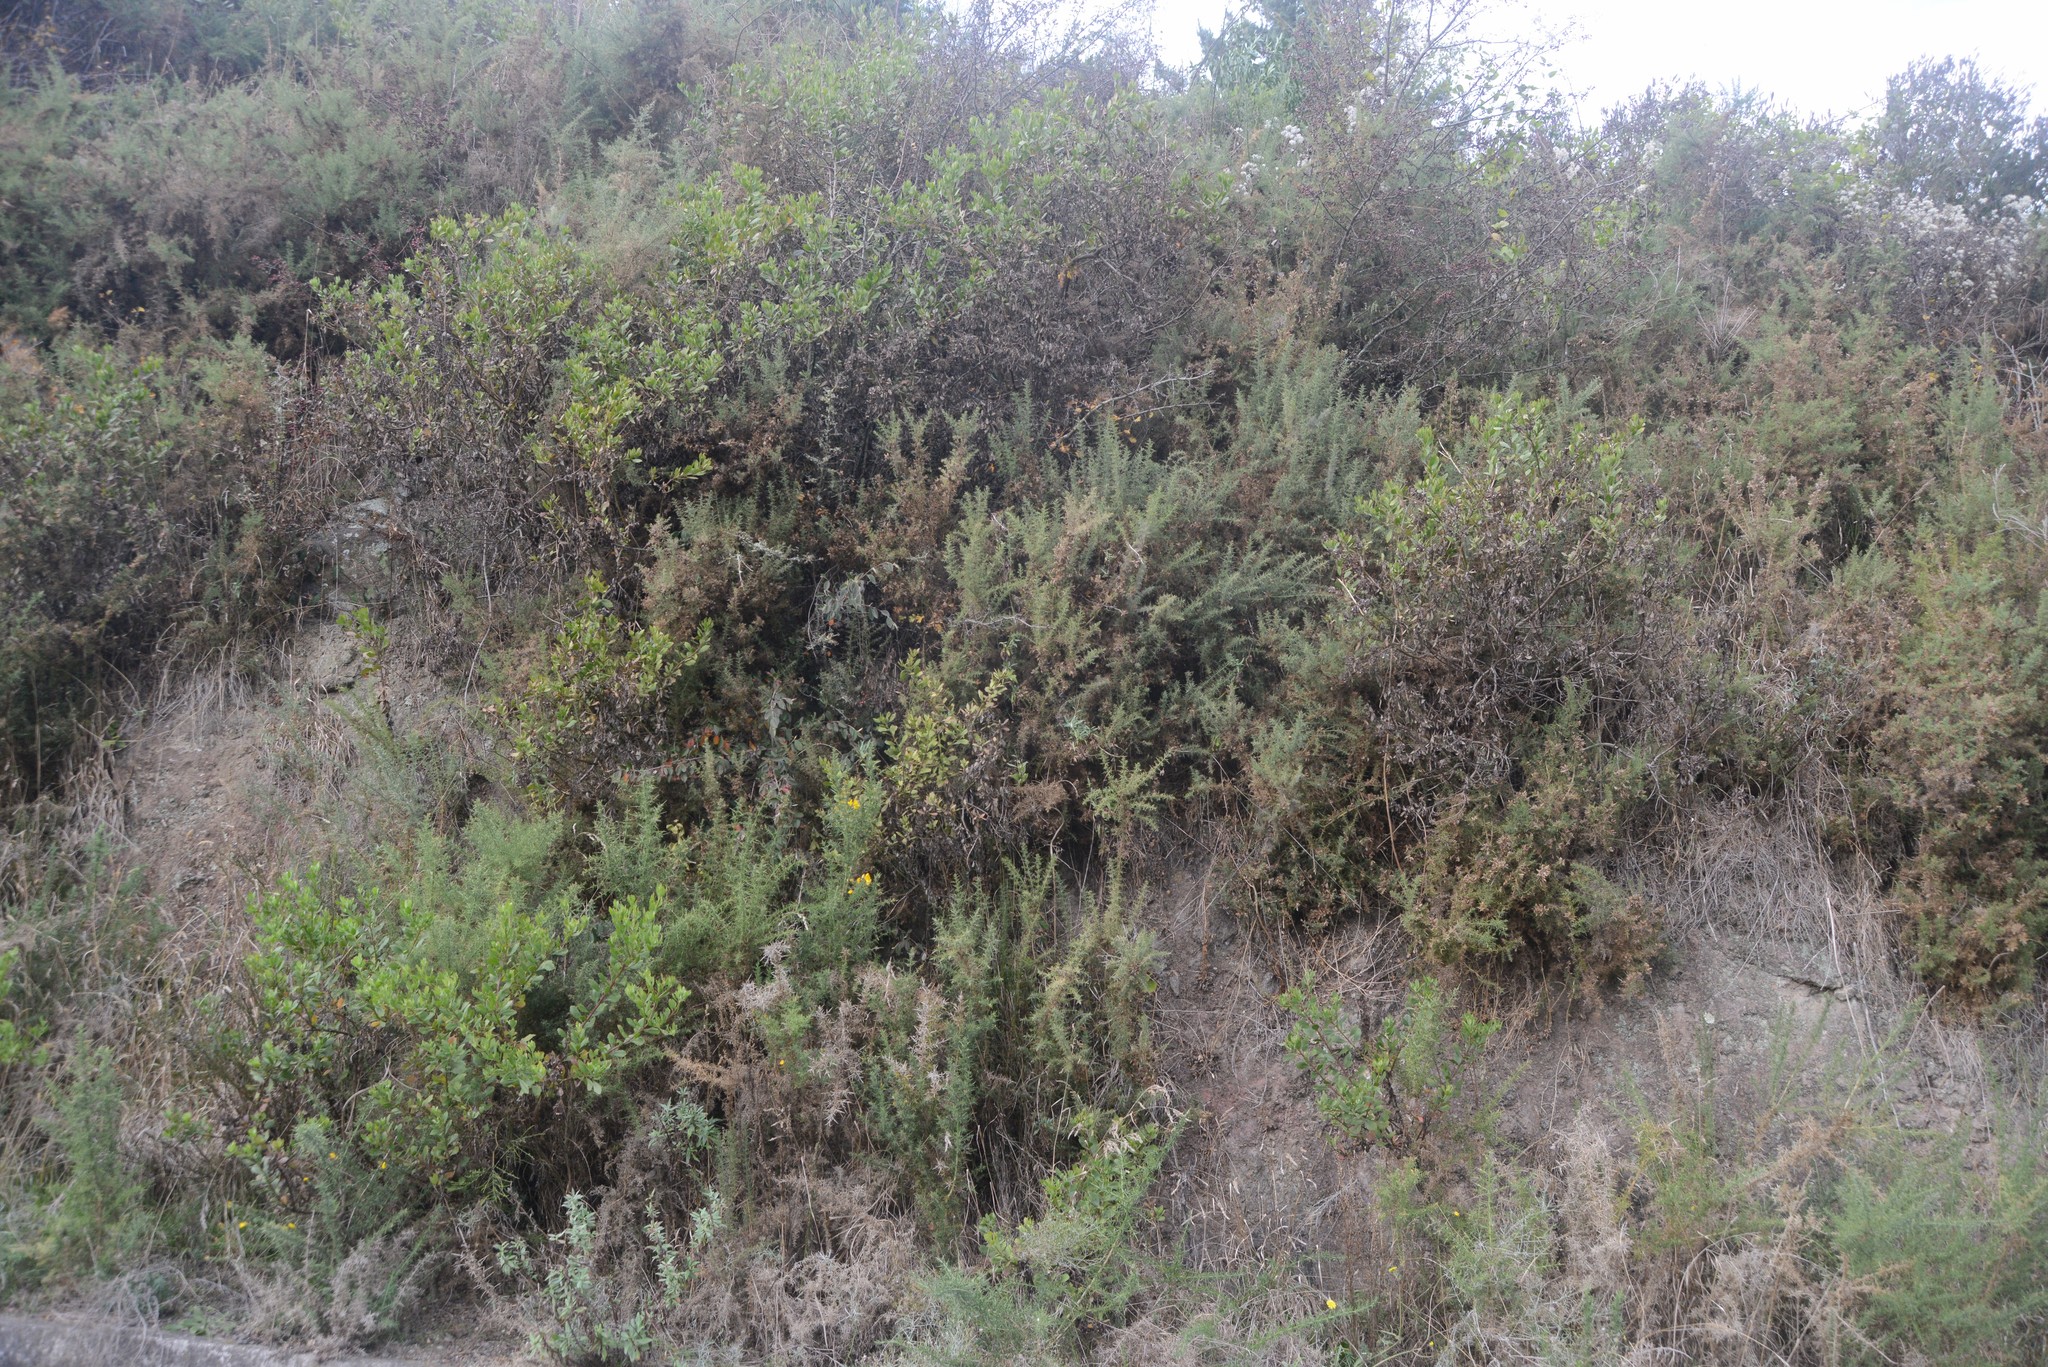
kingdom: Plantae
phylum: Tracheophyta
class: Magnoliopsida
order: Fabales
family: Fabaceae
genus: Ulex
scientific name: Ulex europaeus
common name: Common gorse
